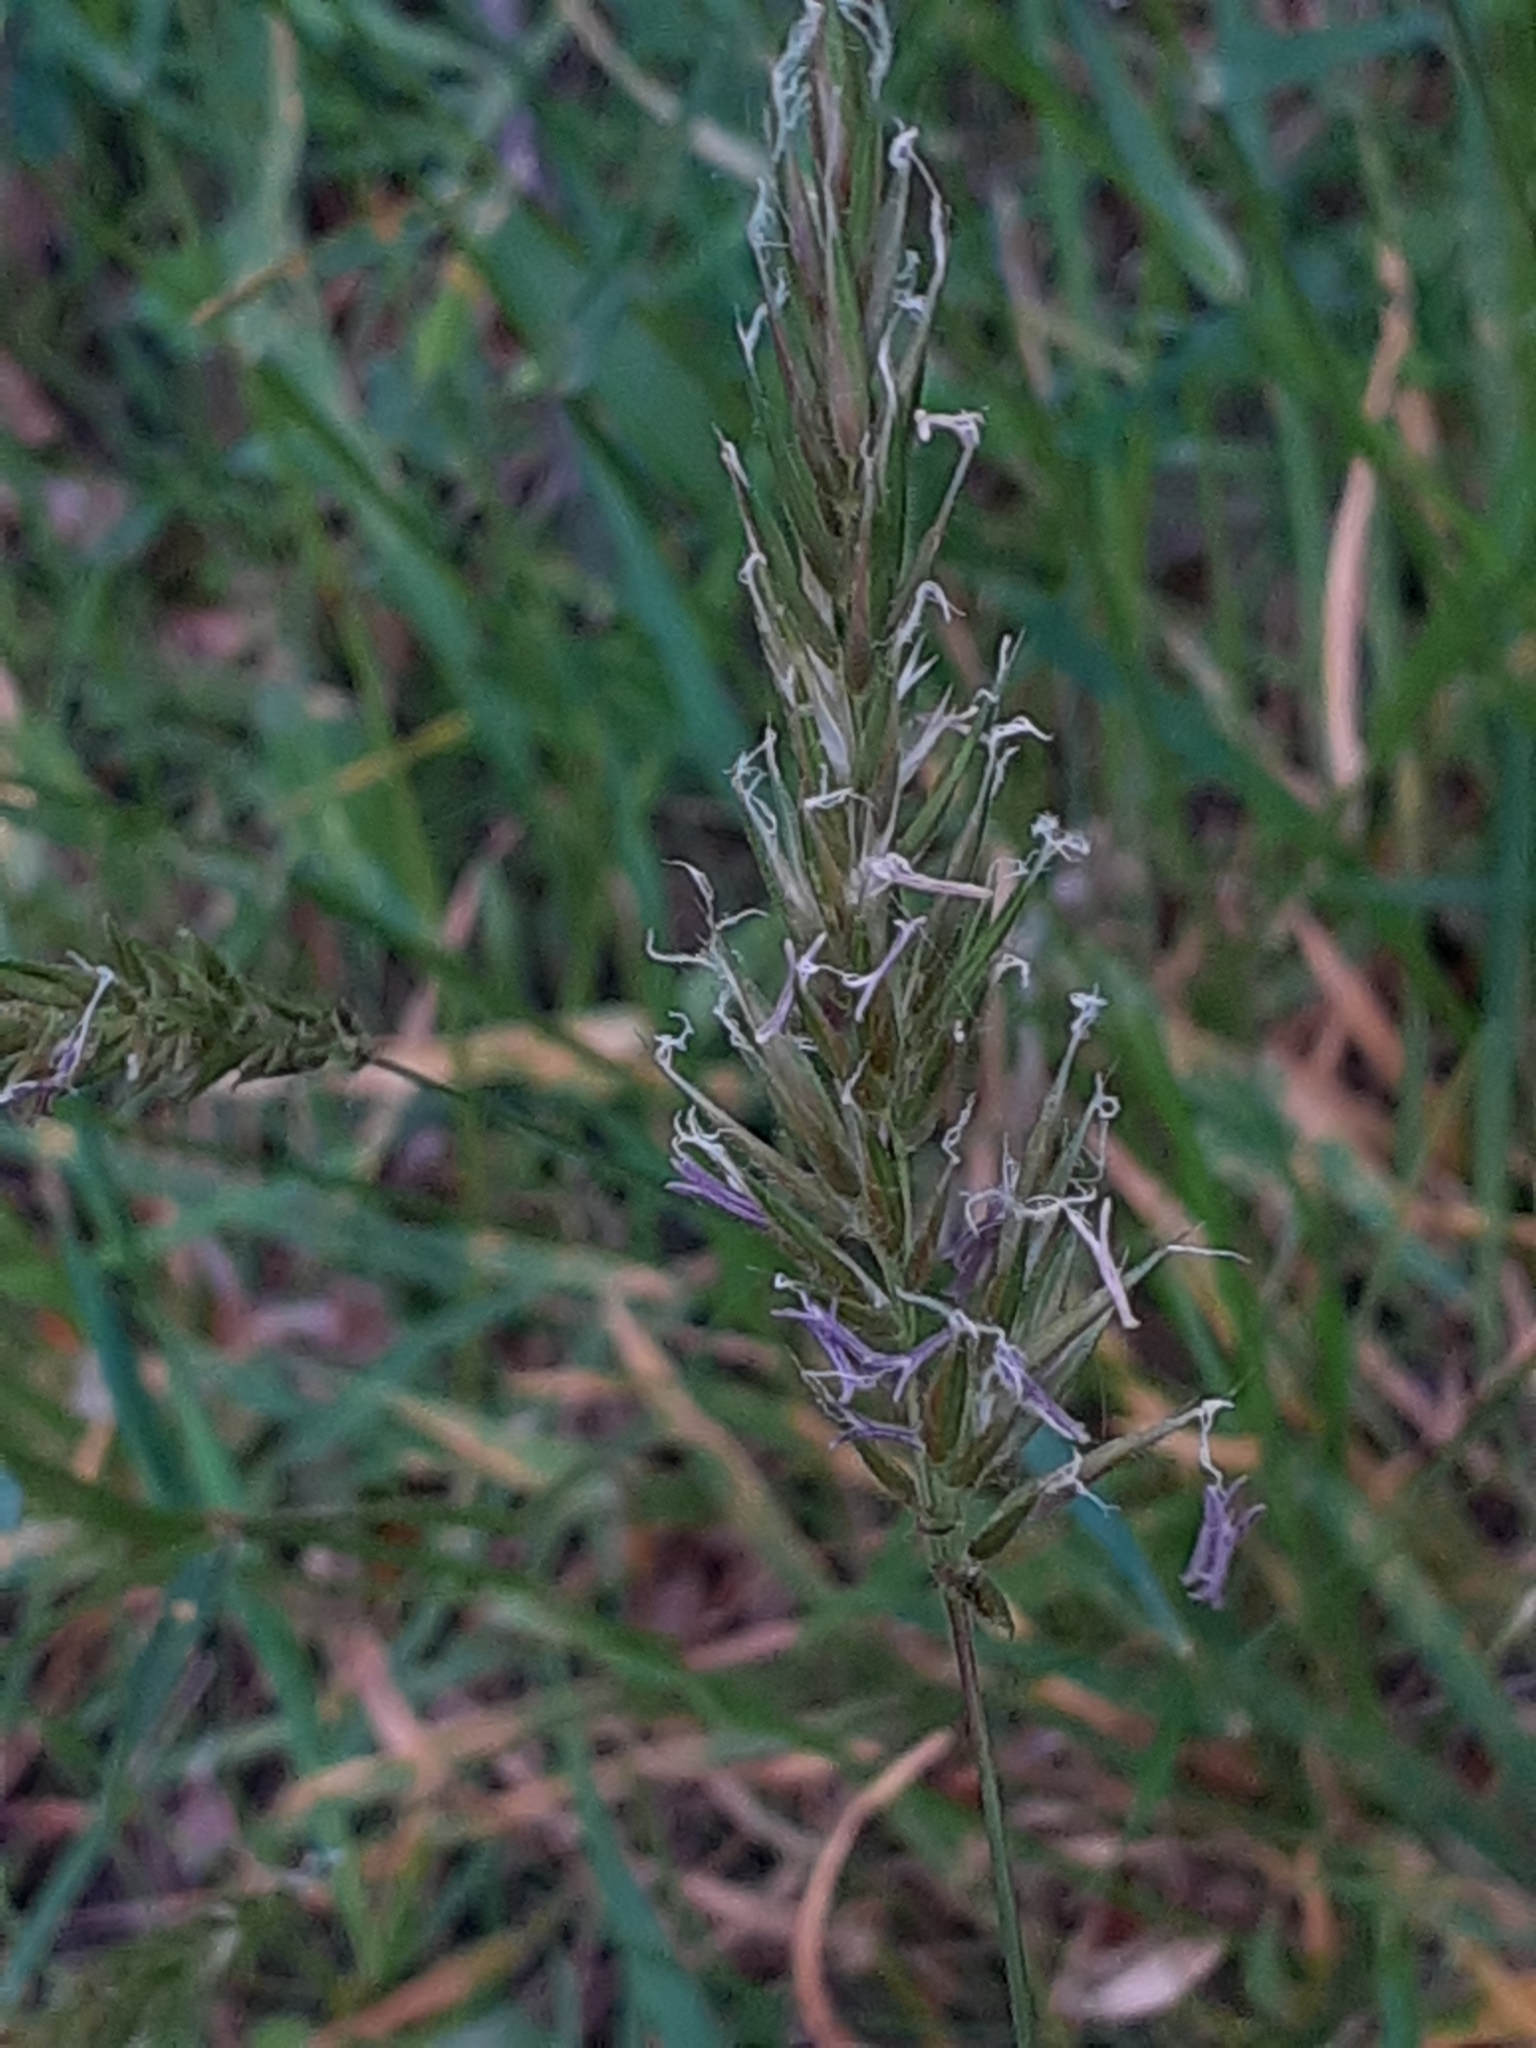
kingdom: Plantae
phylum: Tracheophyta
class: Liliopsida
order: Poales
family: Poaceae
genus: Anthoxanthum
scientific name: Anthoxanthum odoratum
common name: Sweet vernalgrass
